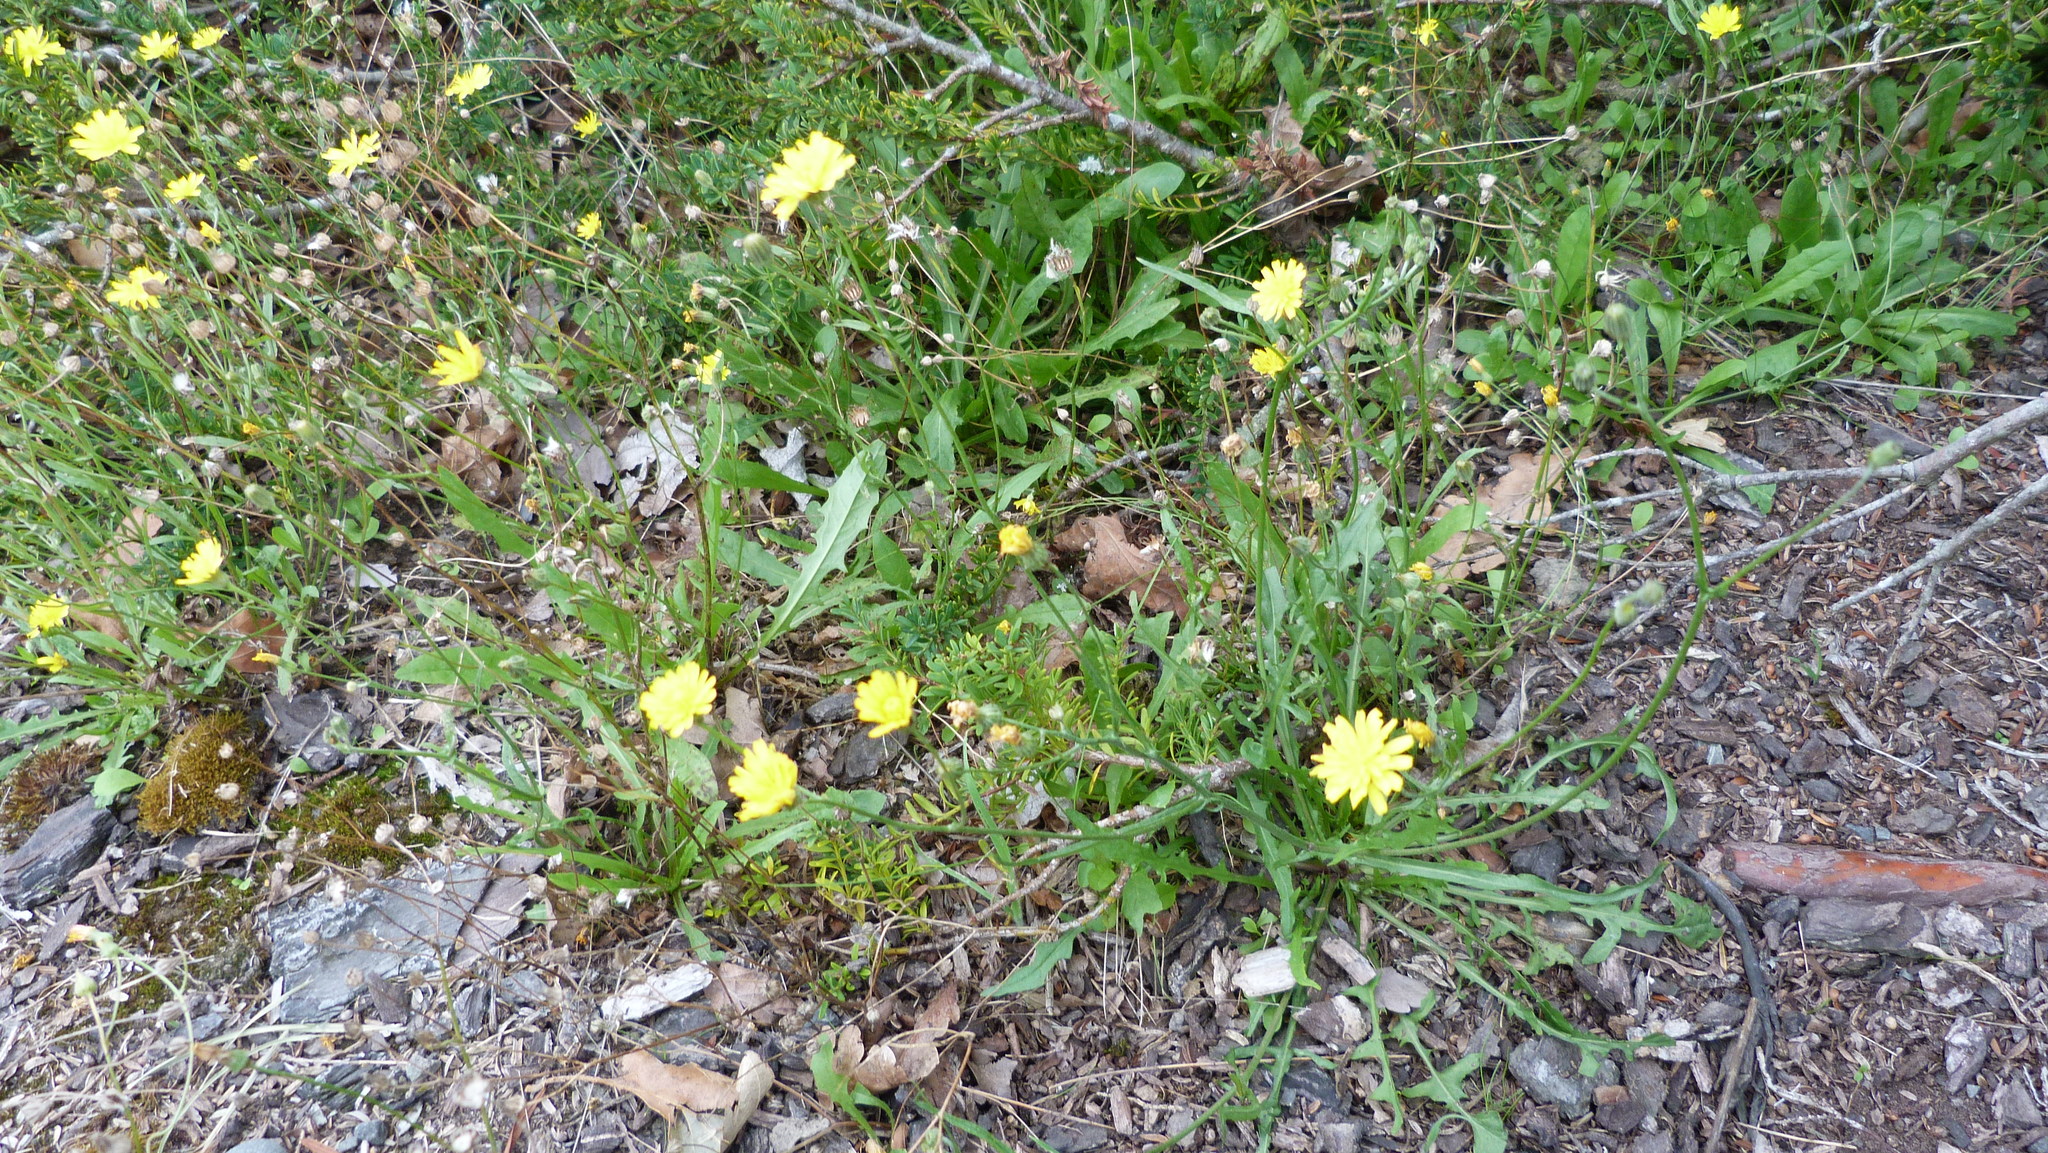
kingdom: Plantae
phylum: Tracheophyta
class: Magnoliopsida
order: Asterales
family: Asteraceae
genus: Crepis
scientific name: Crepis capillaris
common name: Smooth hawksbeard
